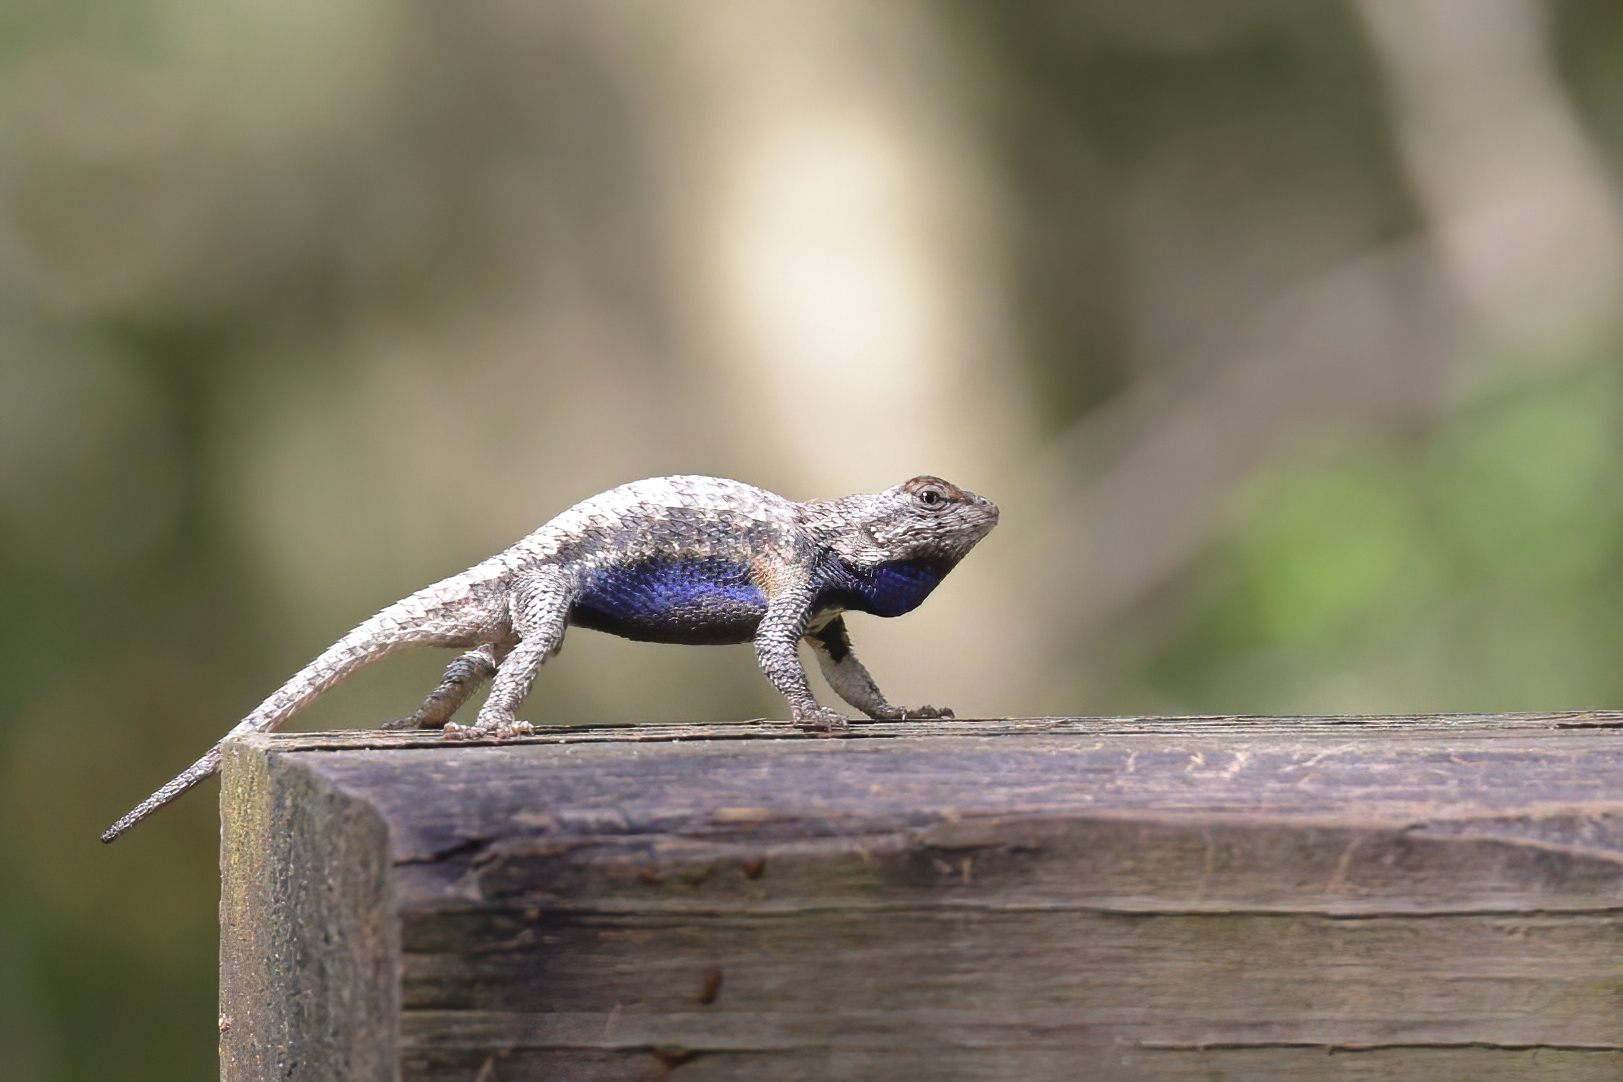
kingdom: Animalia
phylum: Chordata
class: Squamata
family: Phrynosomatidae
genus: Sceloporus
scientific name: Sceloporus undulatus
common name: Eastern fence lizard
